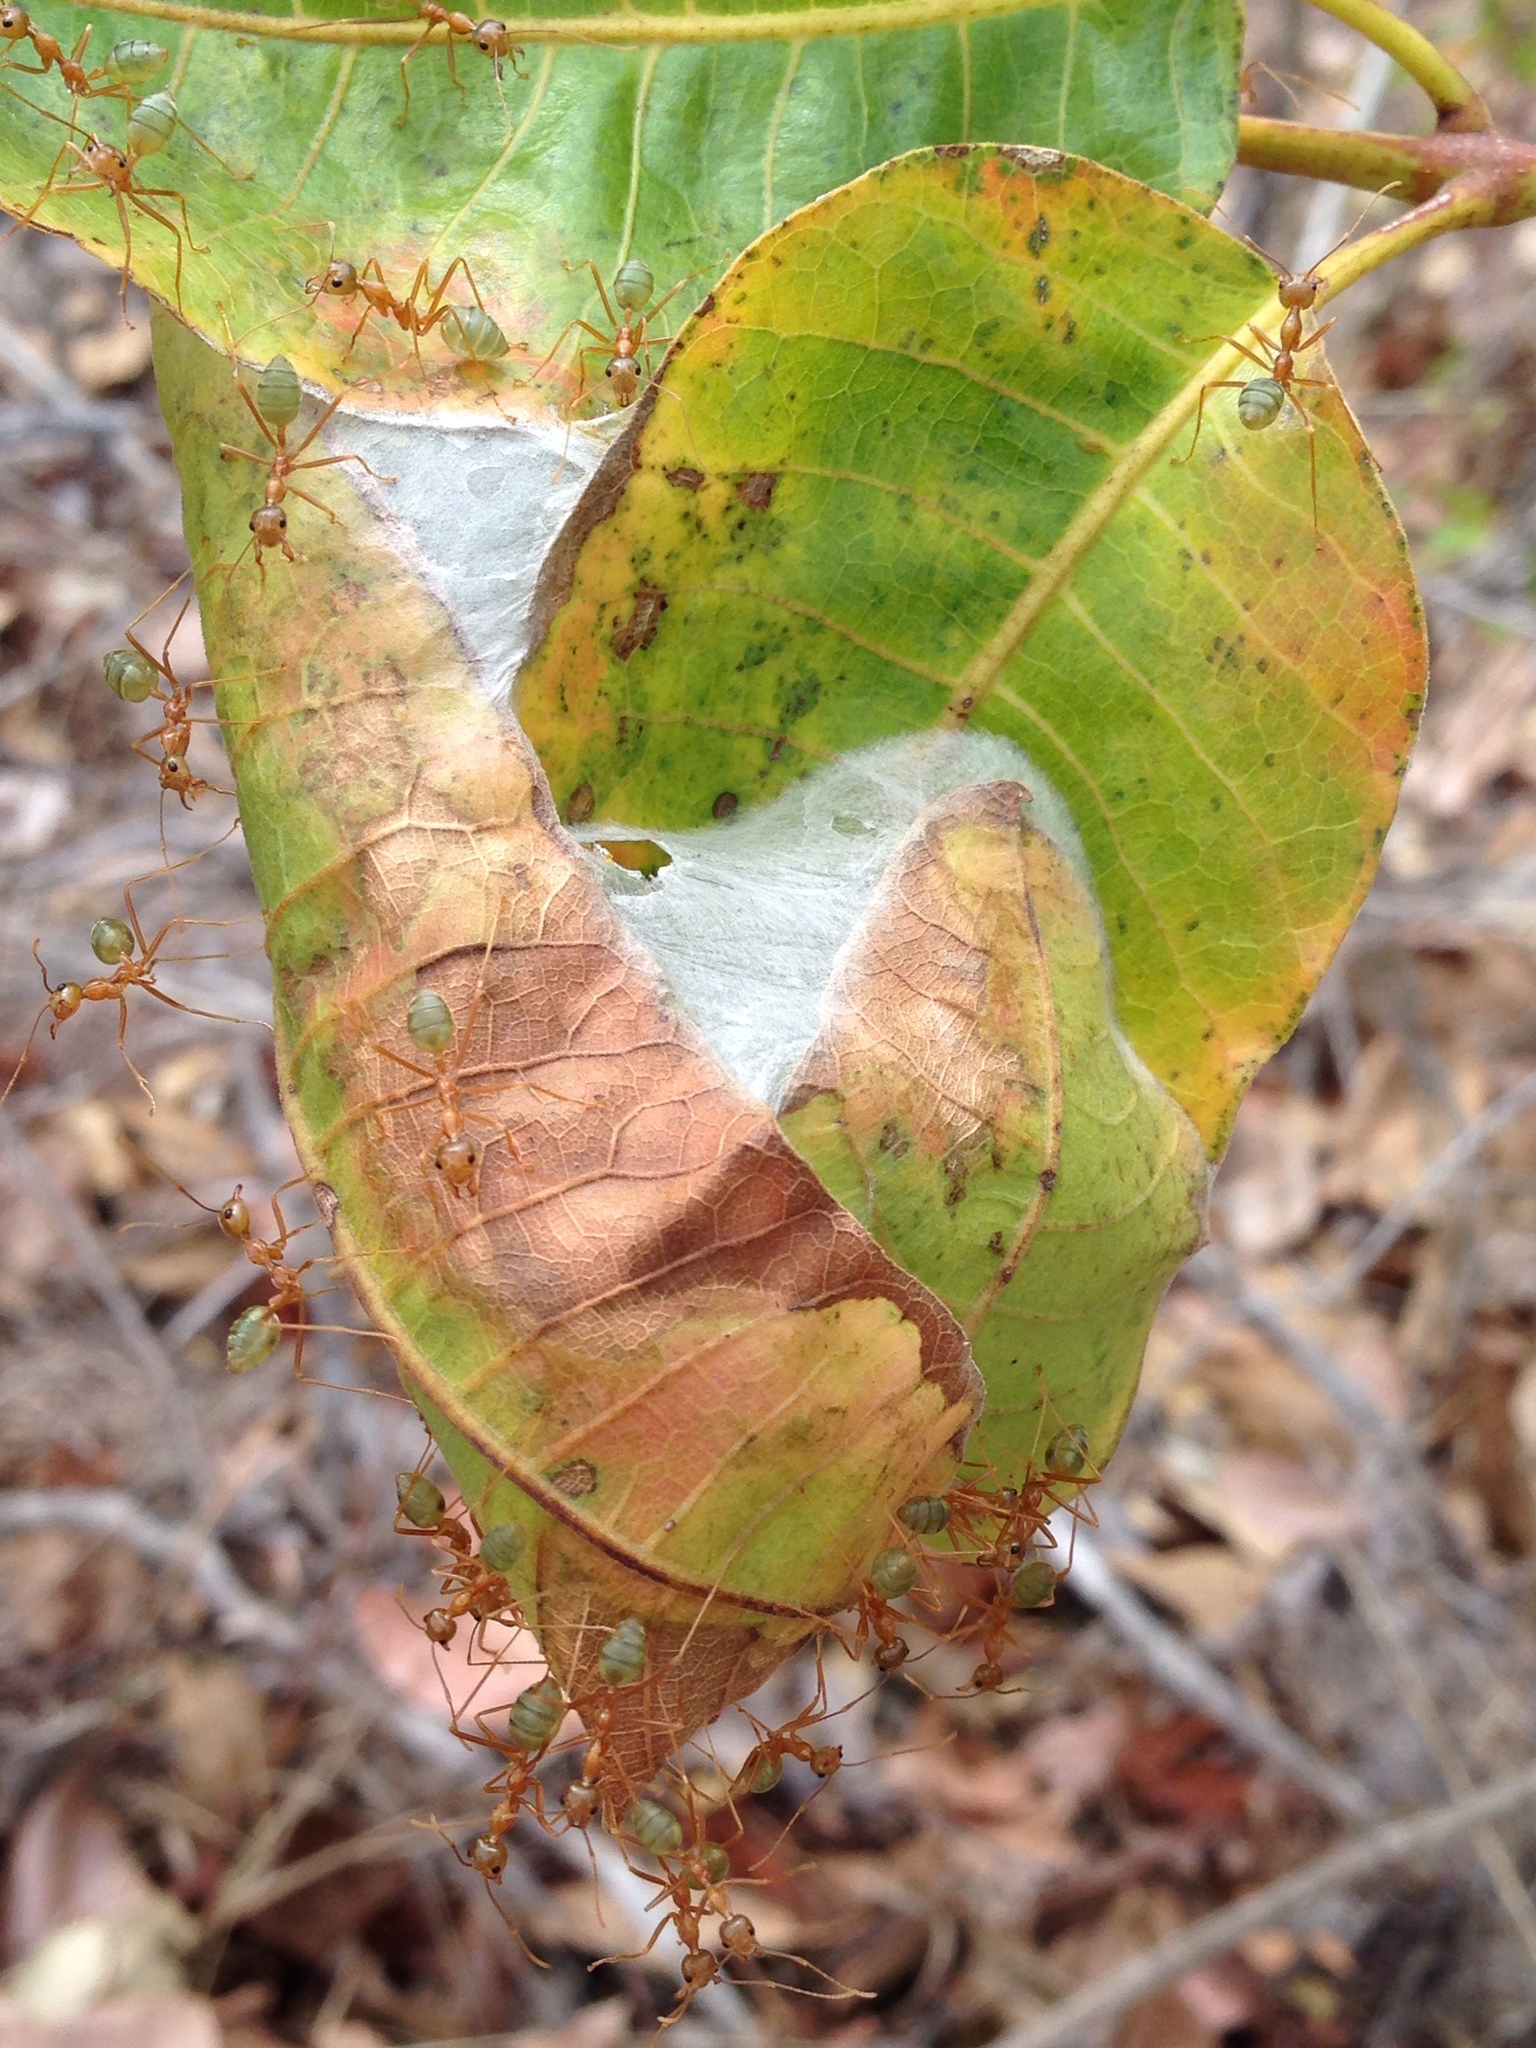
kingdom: Animalia
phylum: Arthropoda
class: Insecta
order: Hymenoptera
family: Formicidae
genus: Oecophylla
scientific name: Oecophylla smaragdina
